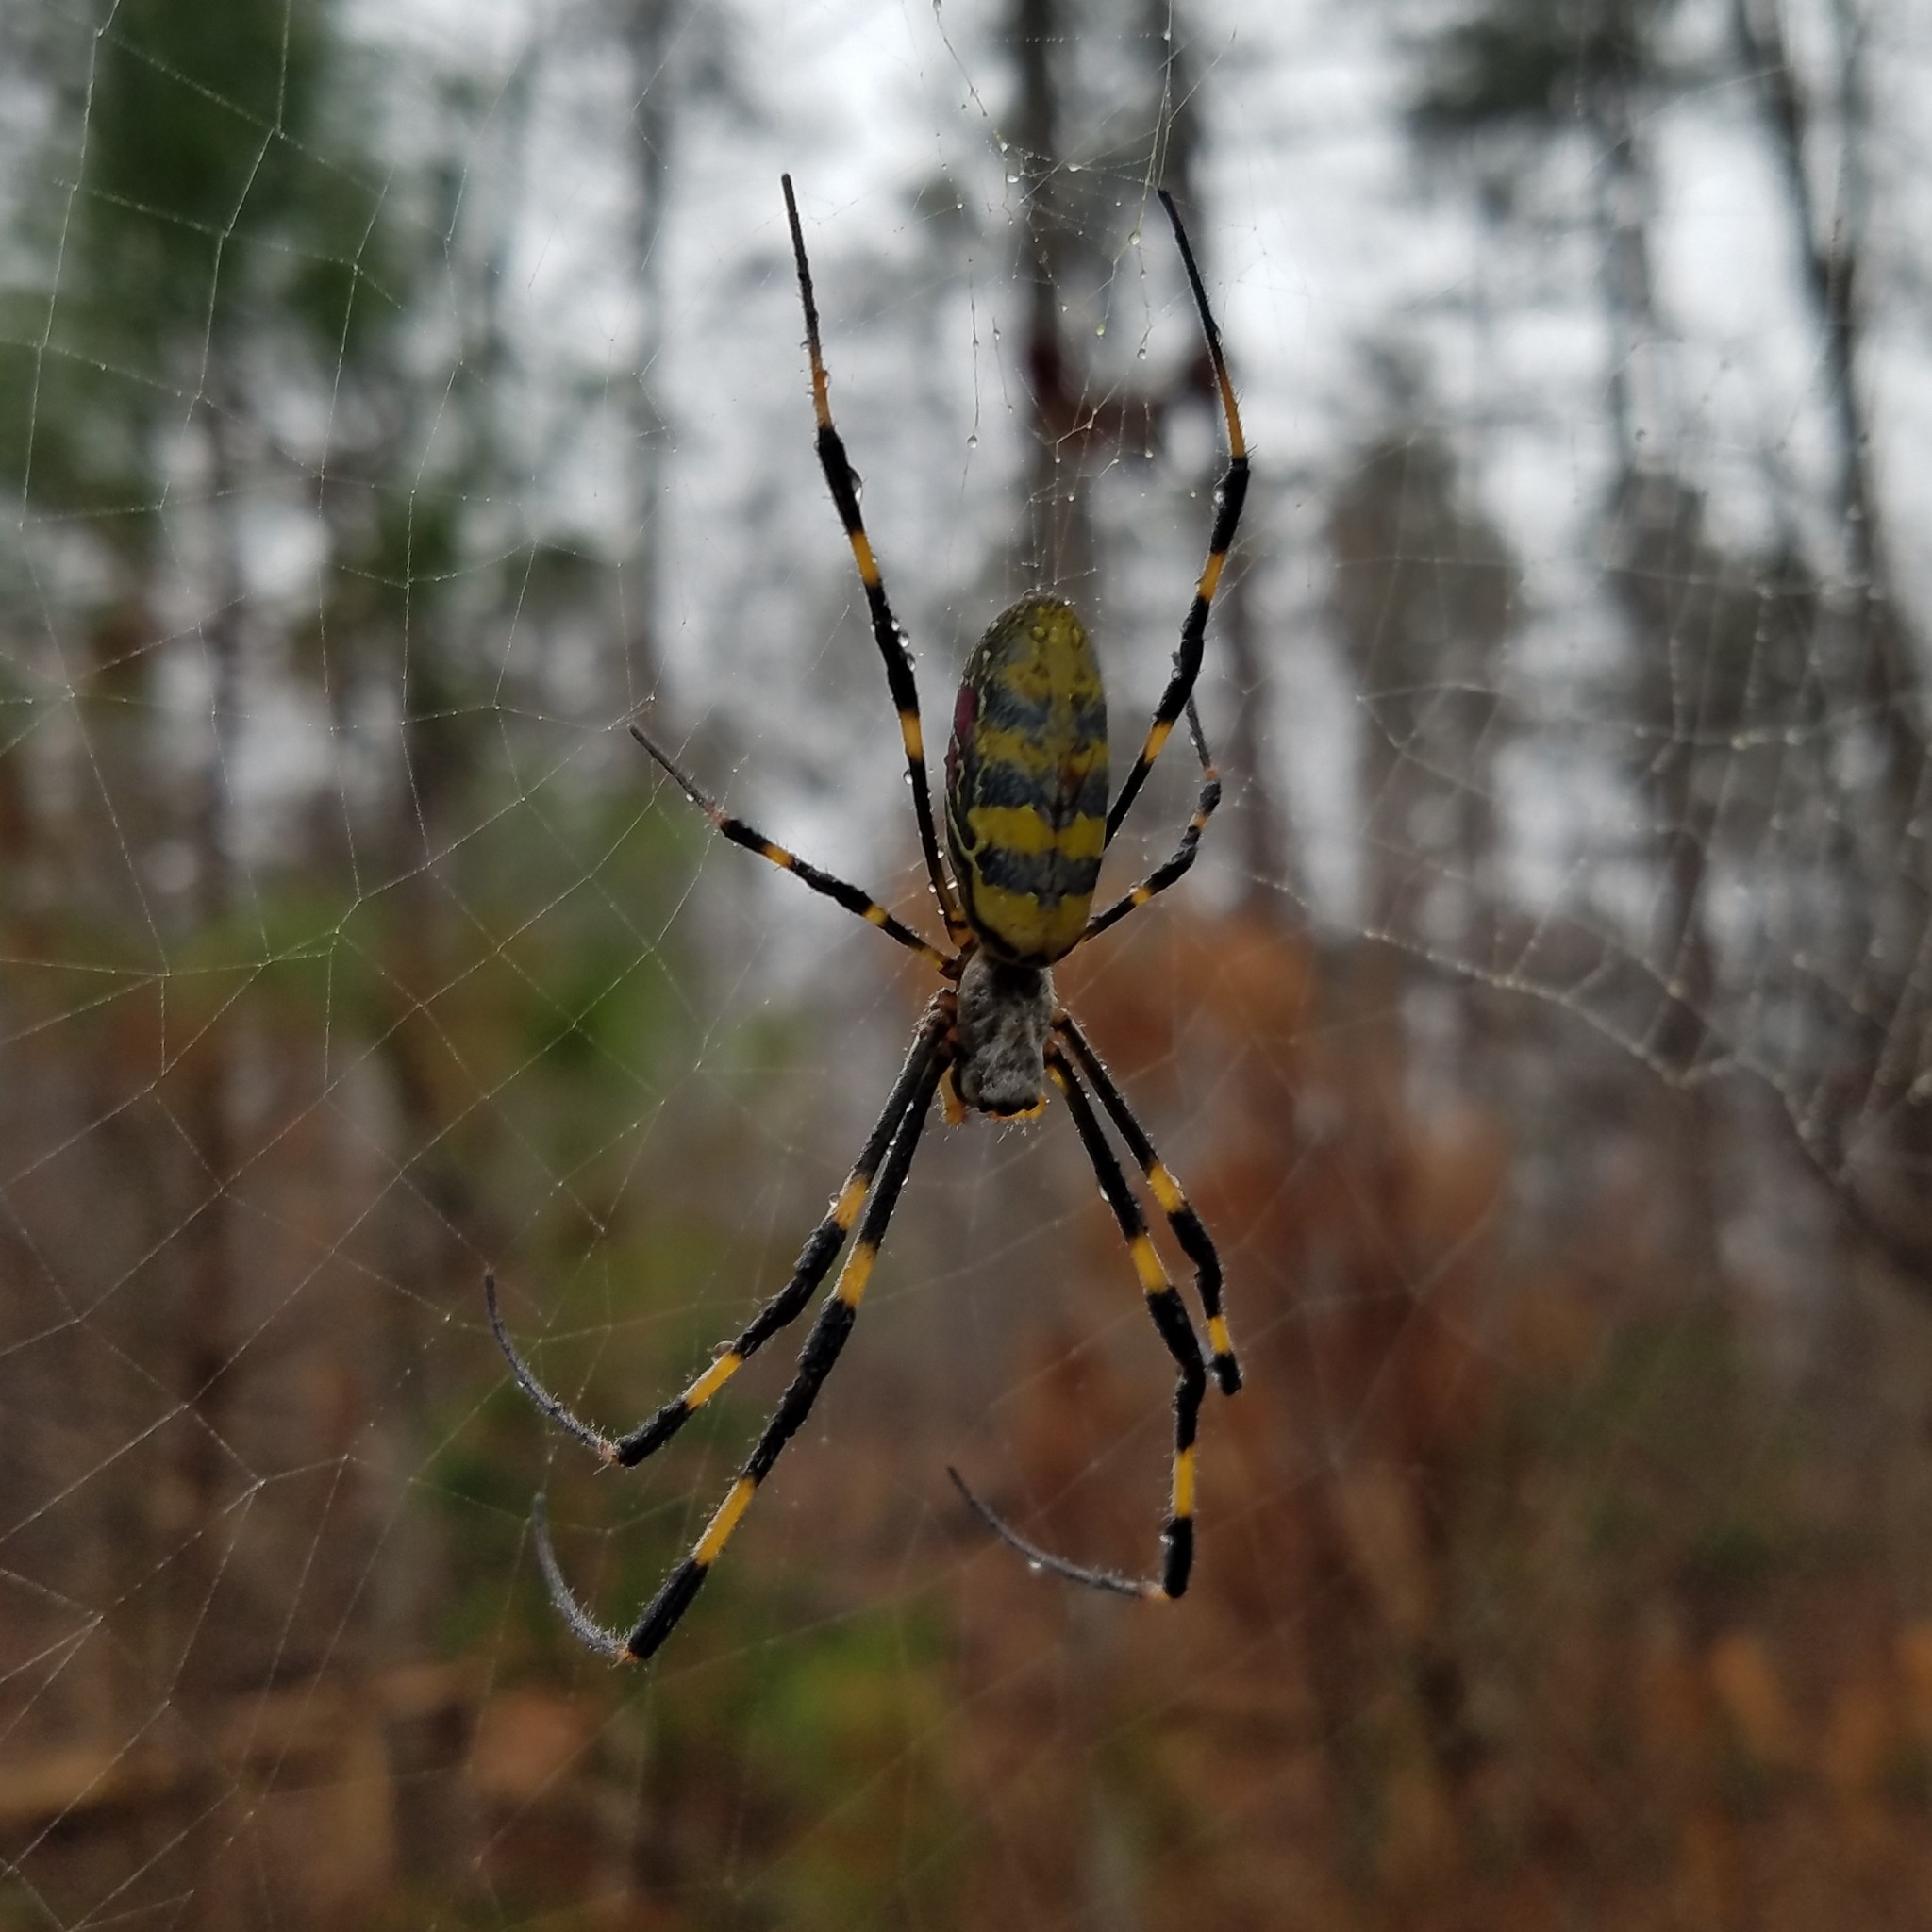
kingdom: Animalia
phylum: Arthropoda
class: Arachnida
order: Araneae
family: Araneidae
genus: Trichonephila
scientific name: Trichonephila clavata
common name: Jorō spider
